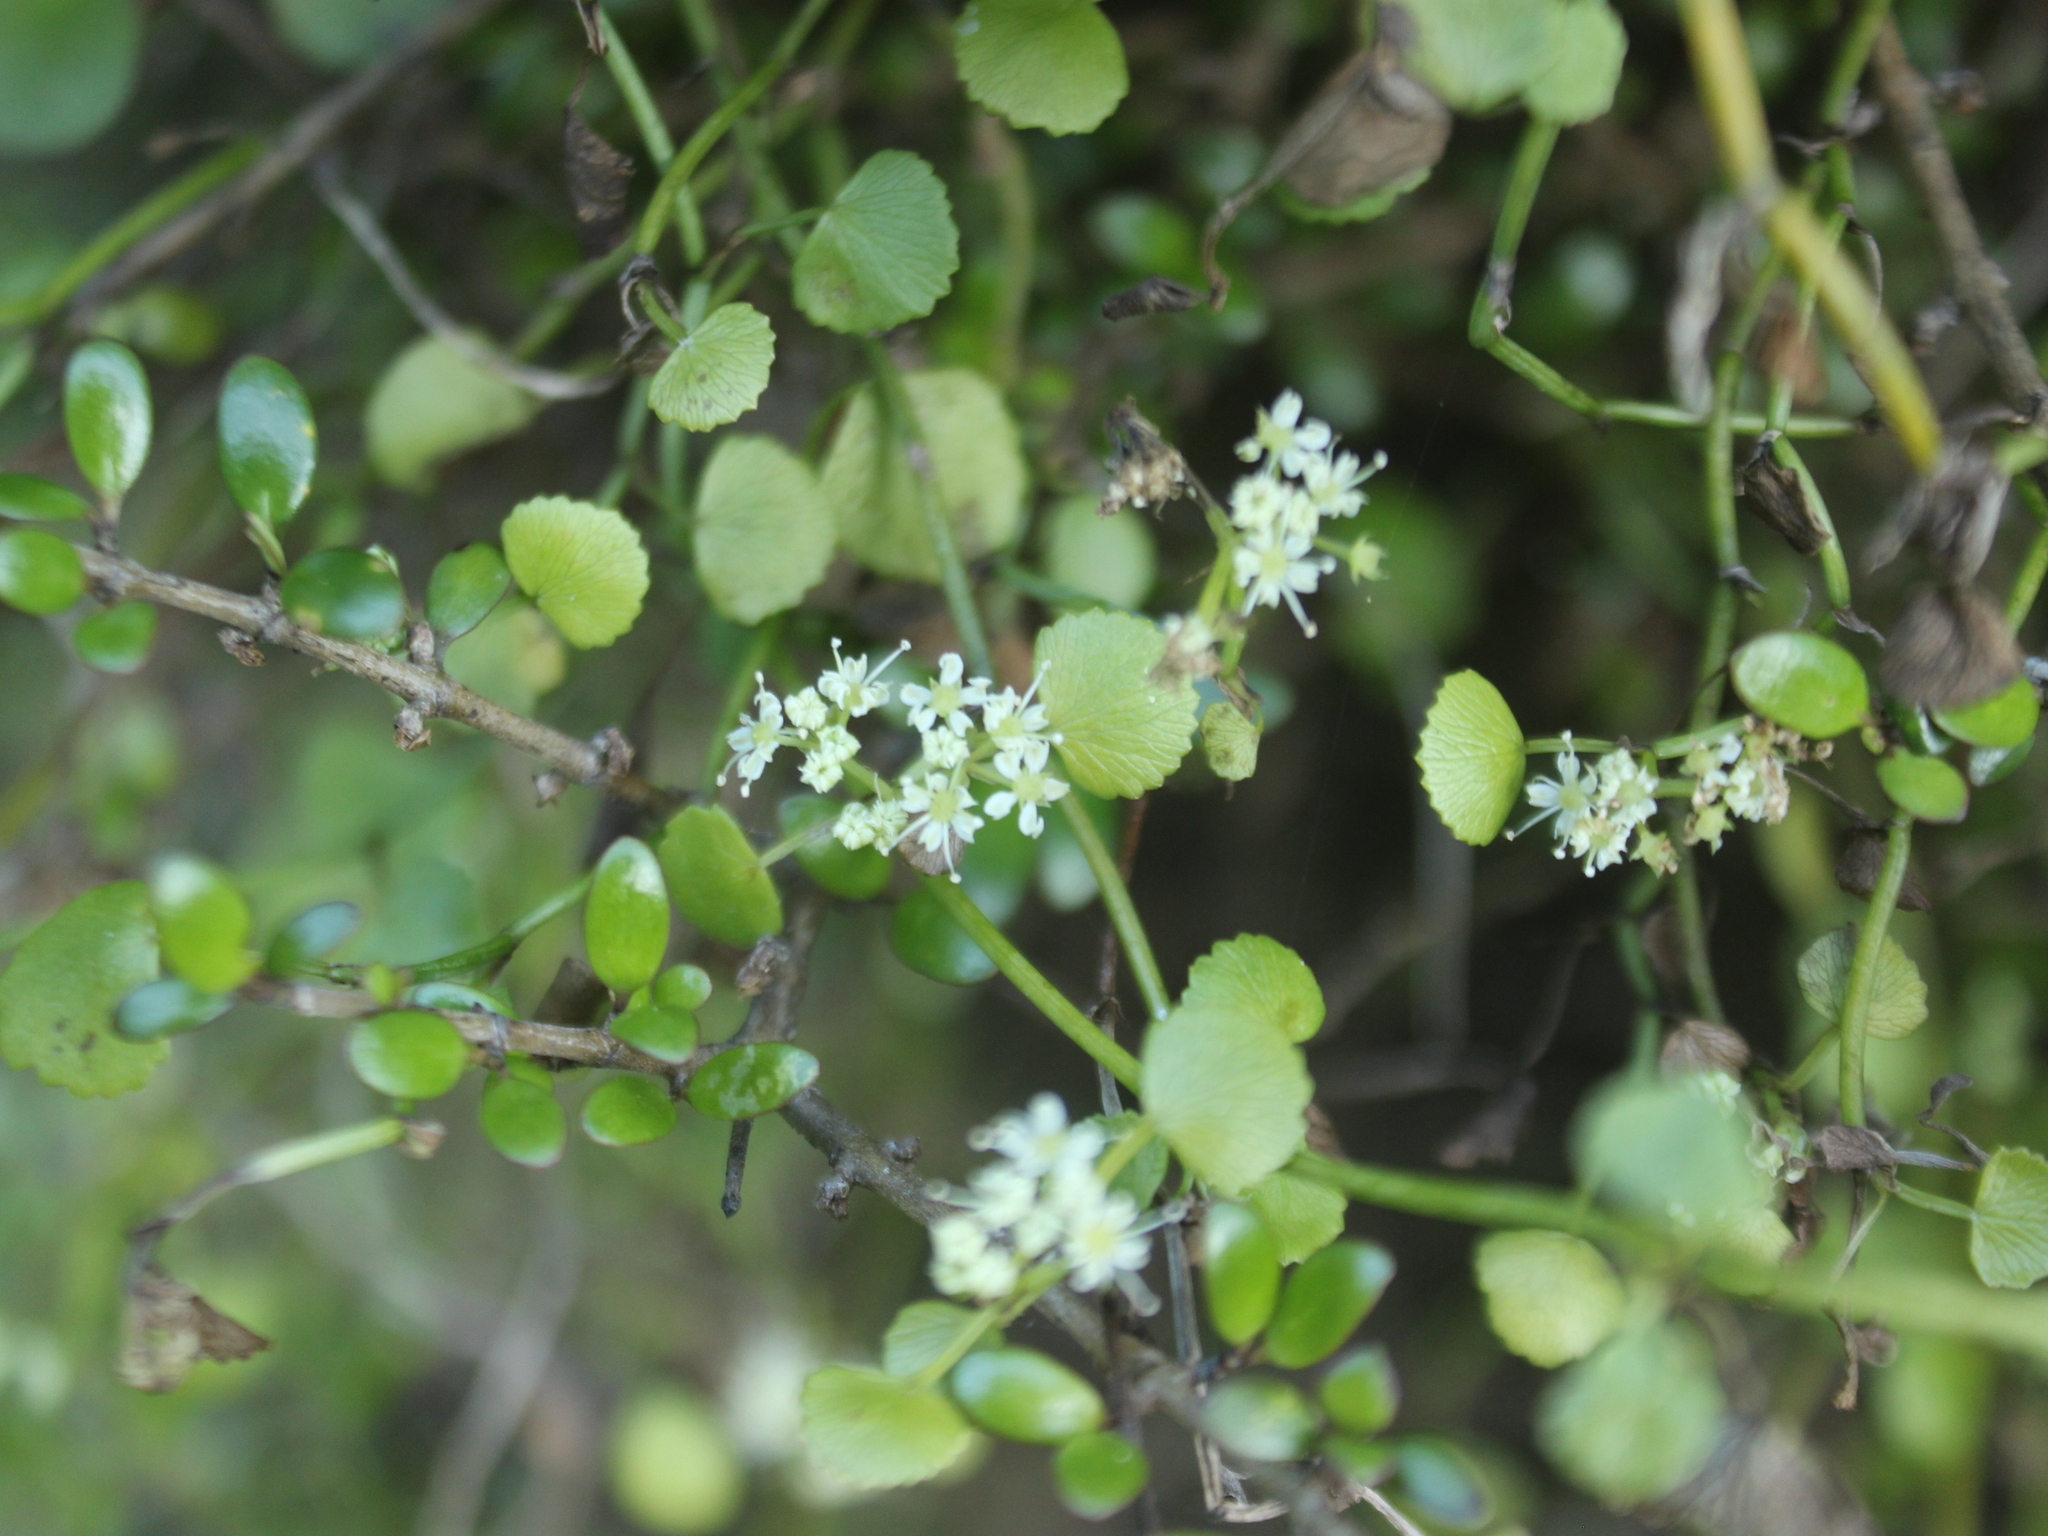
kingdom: Plantae
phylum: Tracheophyta
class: Magnoliopsida
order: Apiales
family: Apiaceae
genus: Scandia
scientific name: Scandia geniculata
